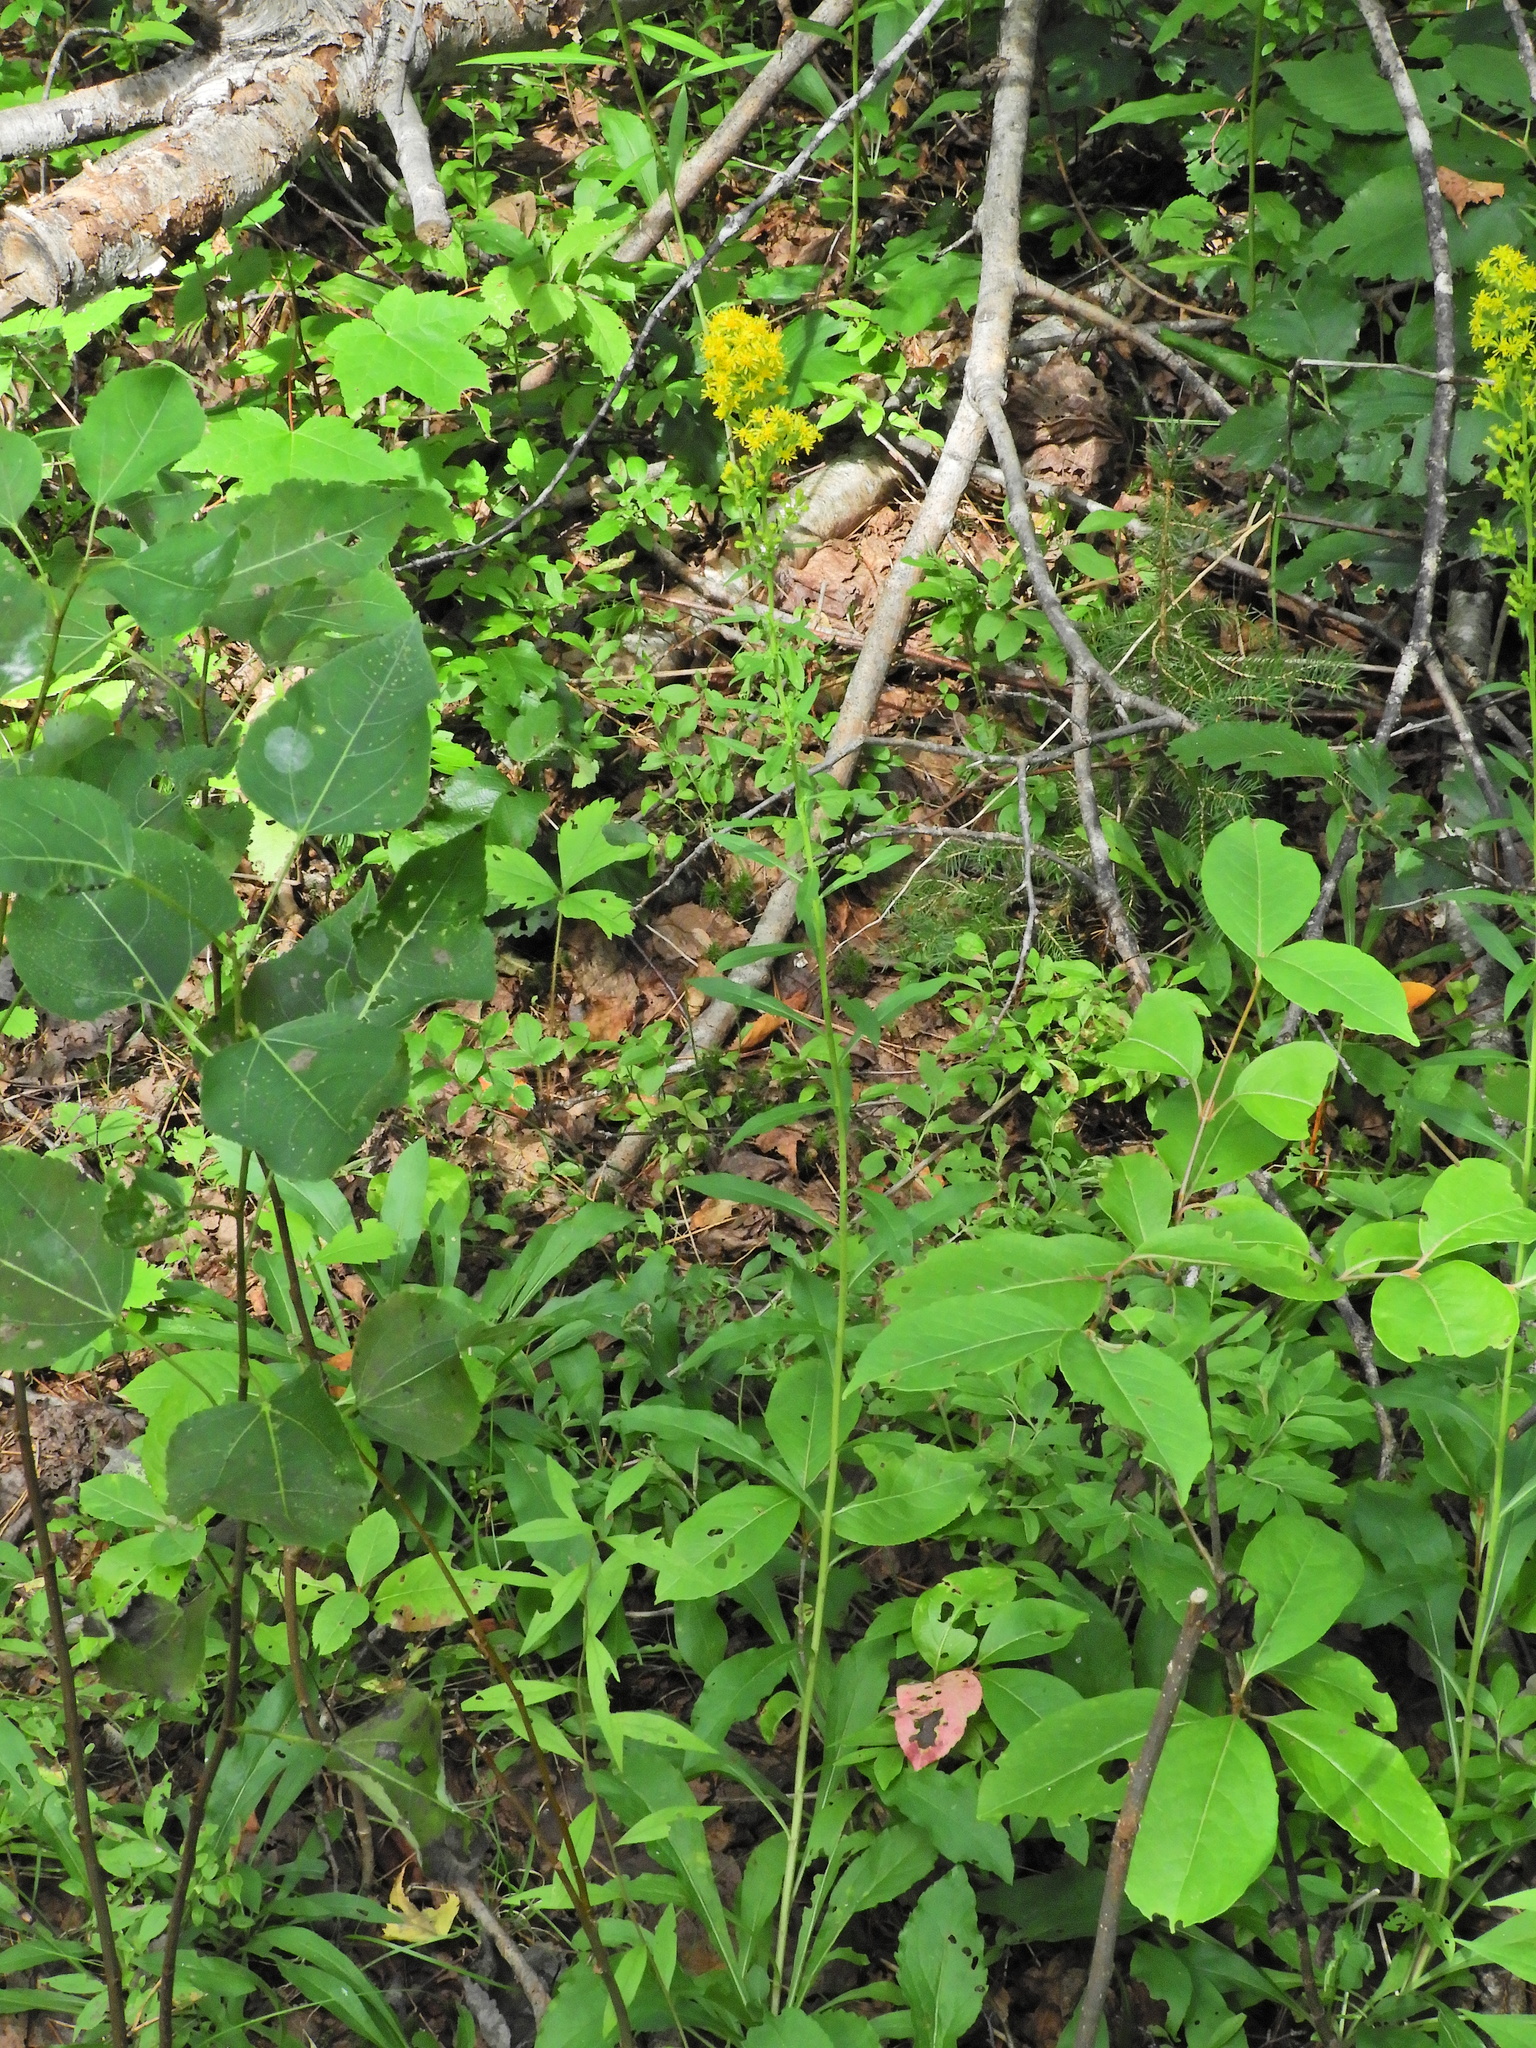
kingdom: Plantae
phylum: Tracheophyta
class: Magnoliopsida
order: Asterales
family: Asteraceae
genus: Solidago
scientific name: Solidago puberula
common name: Downy goldenrod
